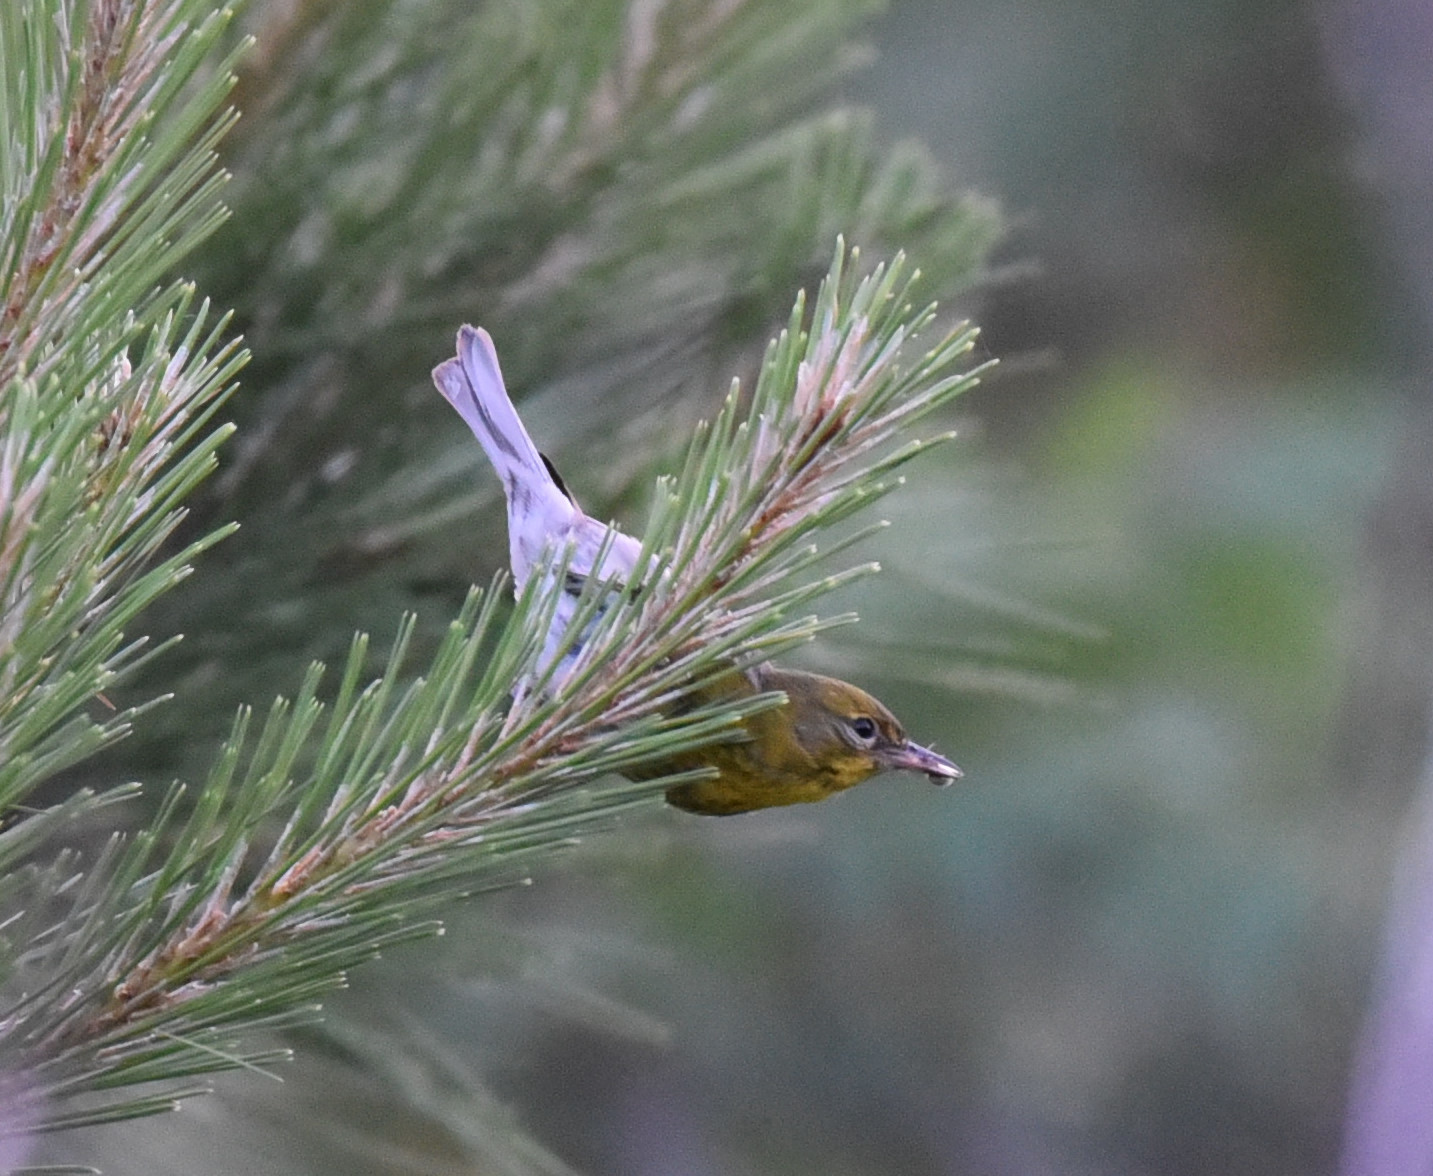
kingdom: Animalia
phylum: Chordata
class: Aves
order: Passeriformes
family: Parulidae
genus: Setophaga
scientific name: Setophaga pinus
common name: Pine warbler
